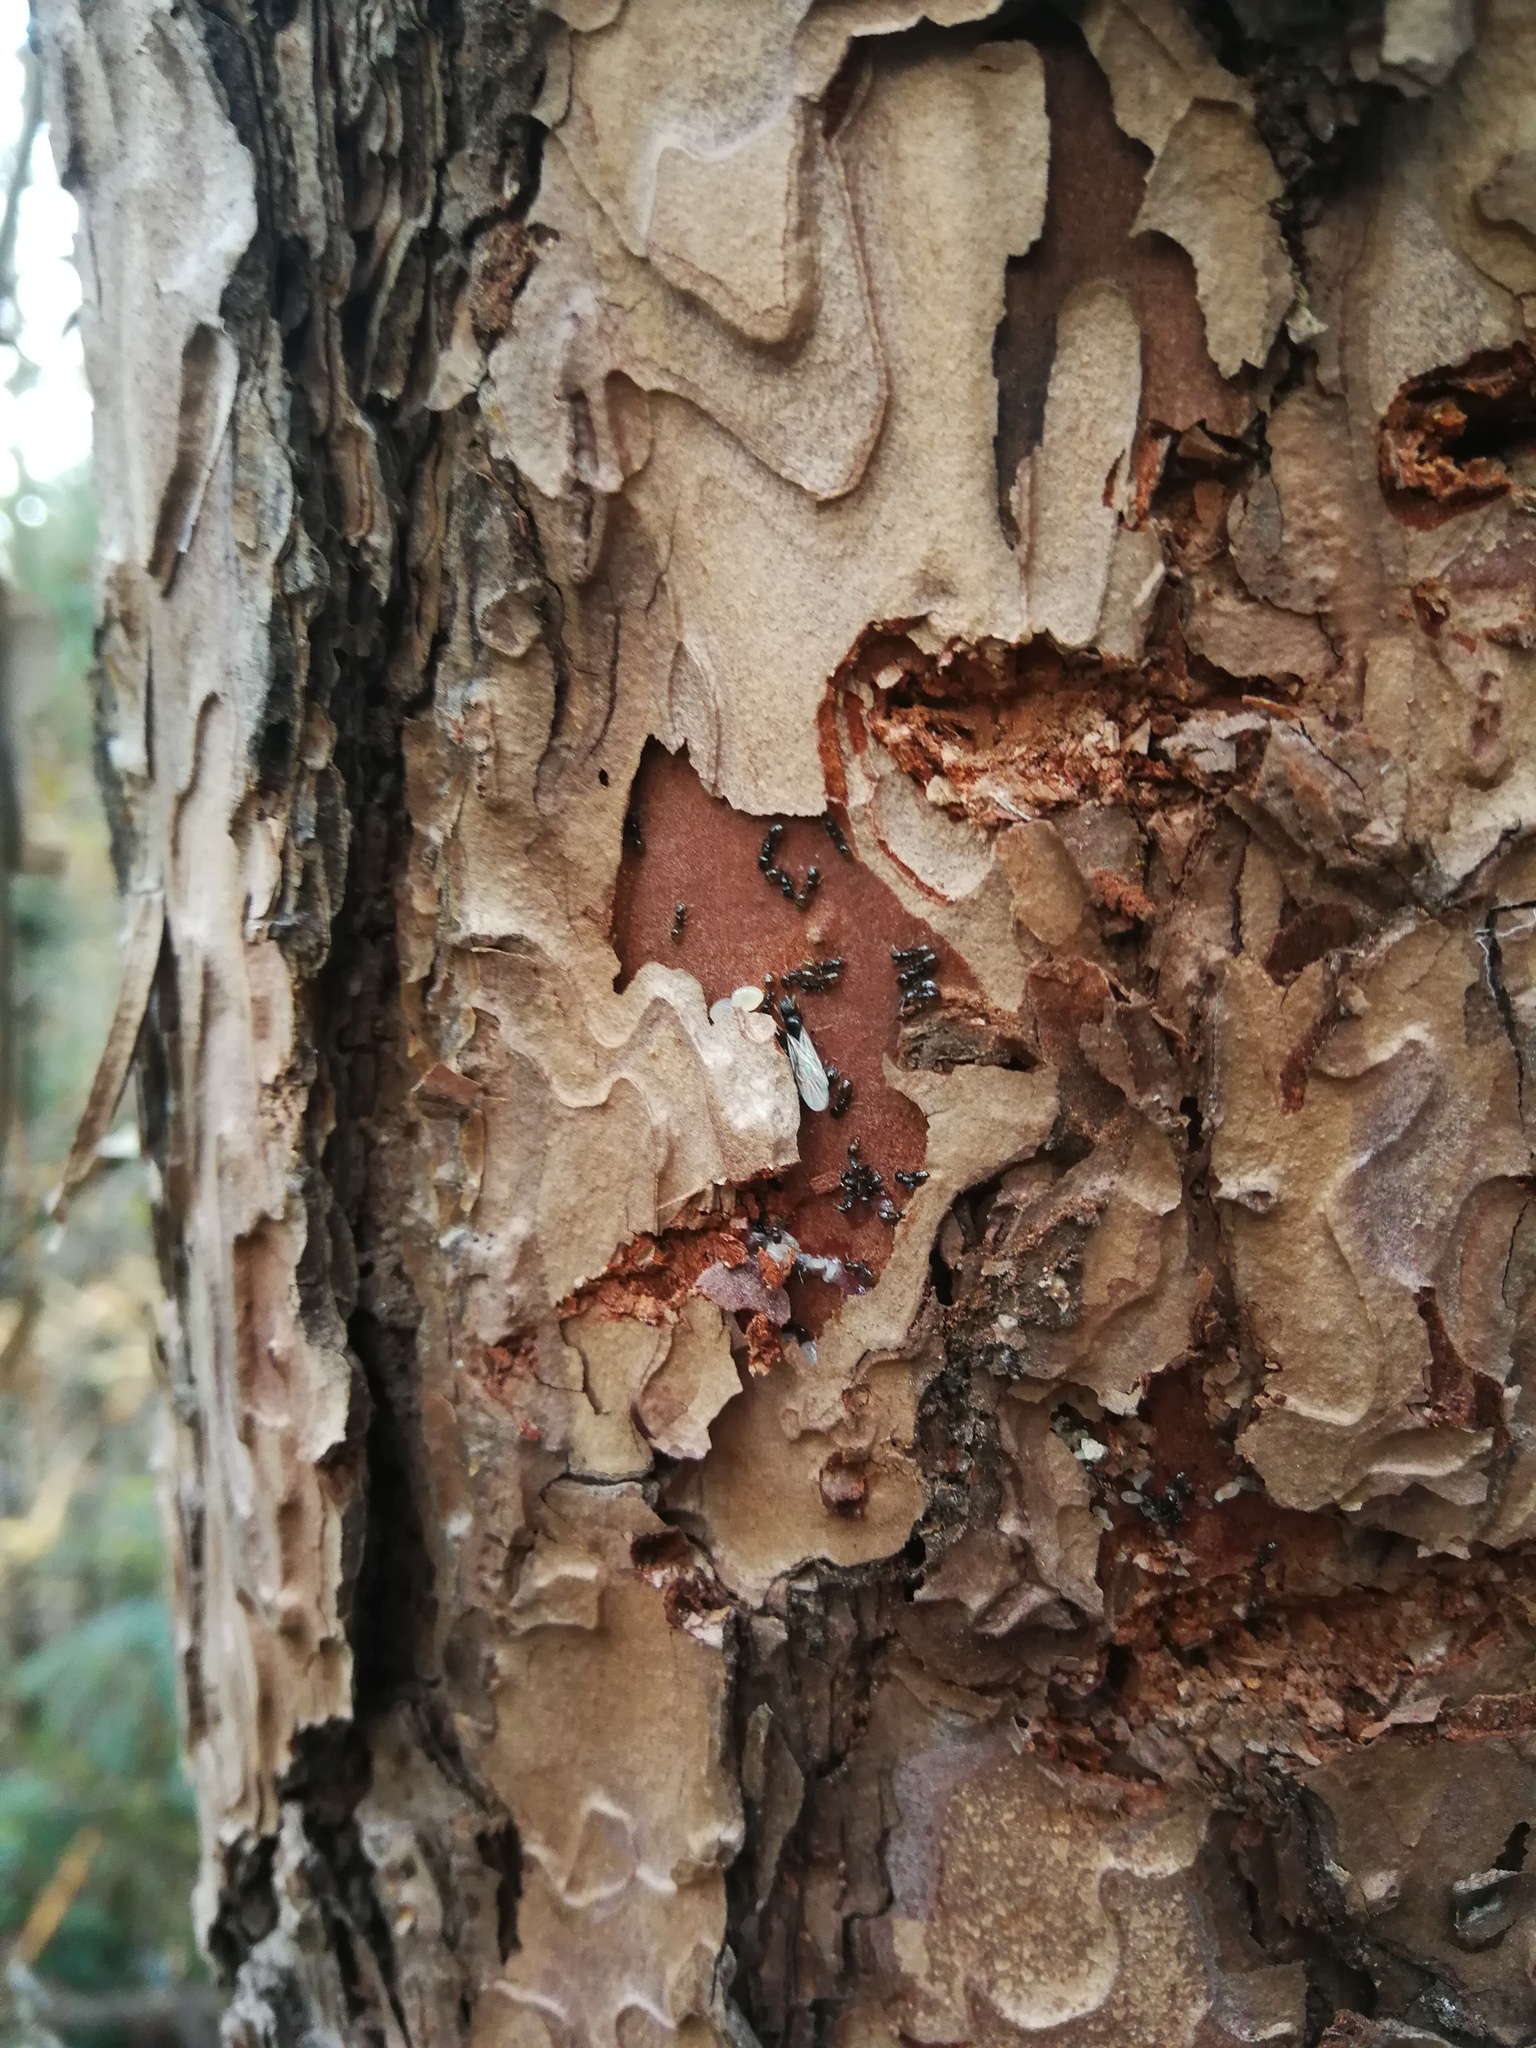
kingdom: Animalia
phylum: Arthropoda
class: Insecta
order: Hymenoptera
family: Formicidae
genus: Vollenhovia
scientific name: Vollenhovia acanthina
